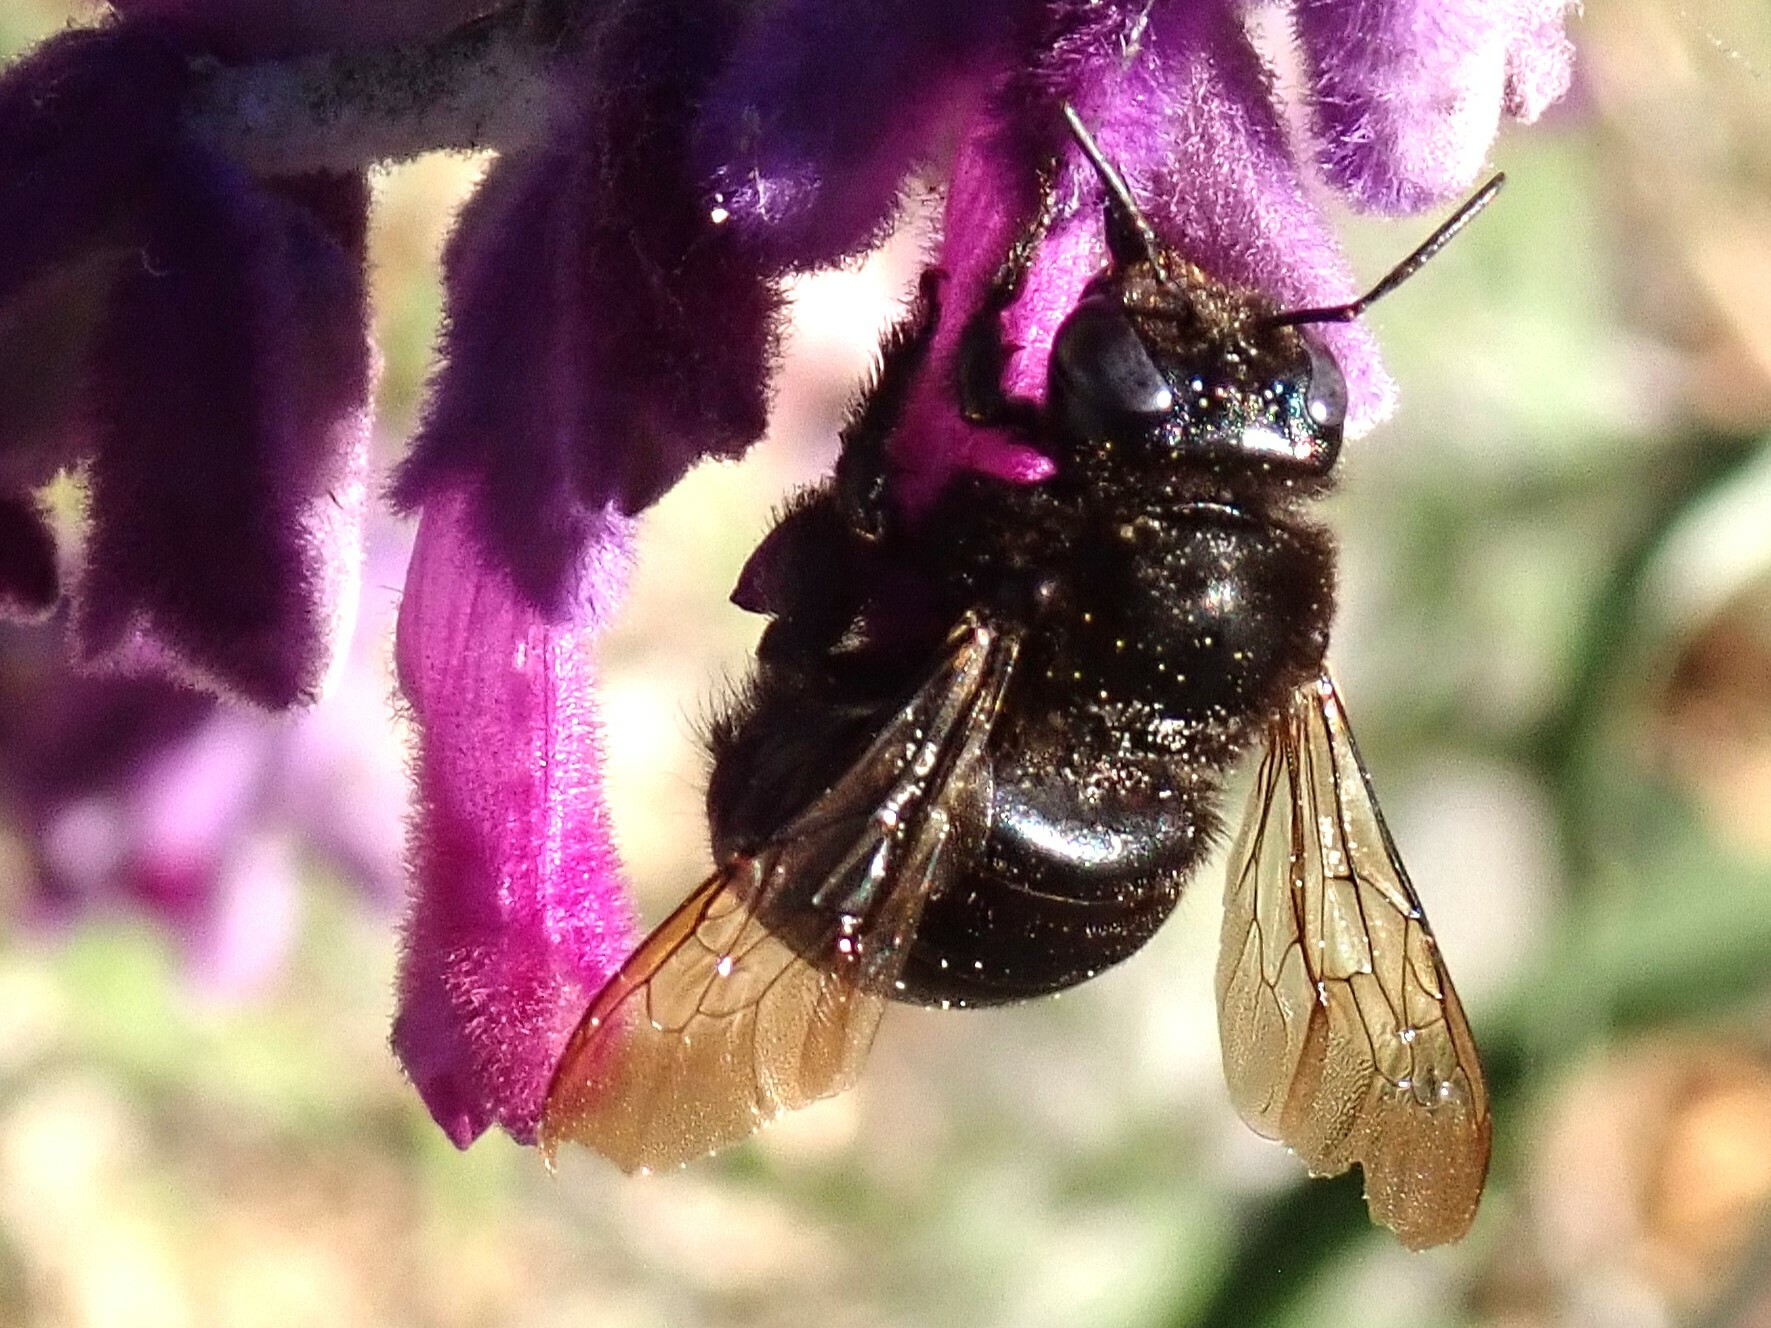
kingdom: Animalia
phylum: Arthropoda
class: Insecta
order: Hymenoptera
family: Apidae
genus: Xylocopa
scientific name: Xylocopa tabaniformis
